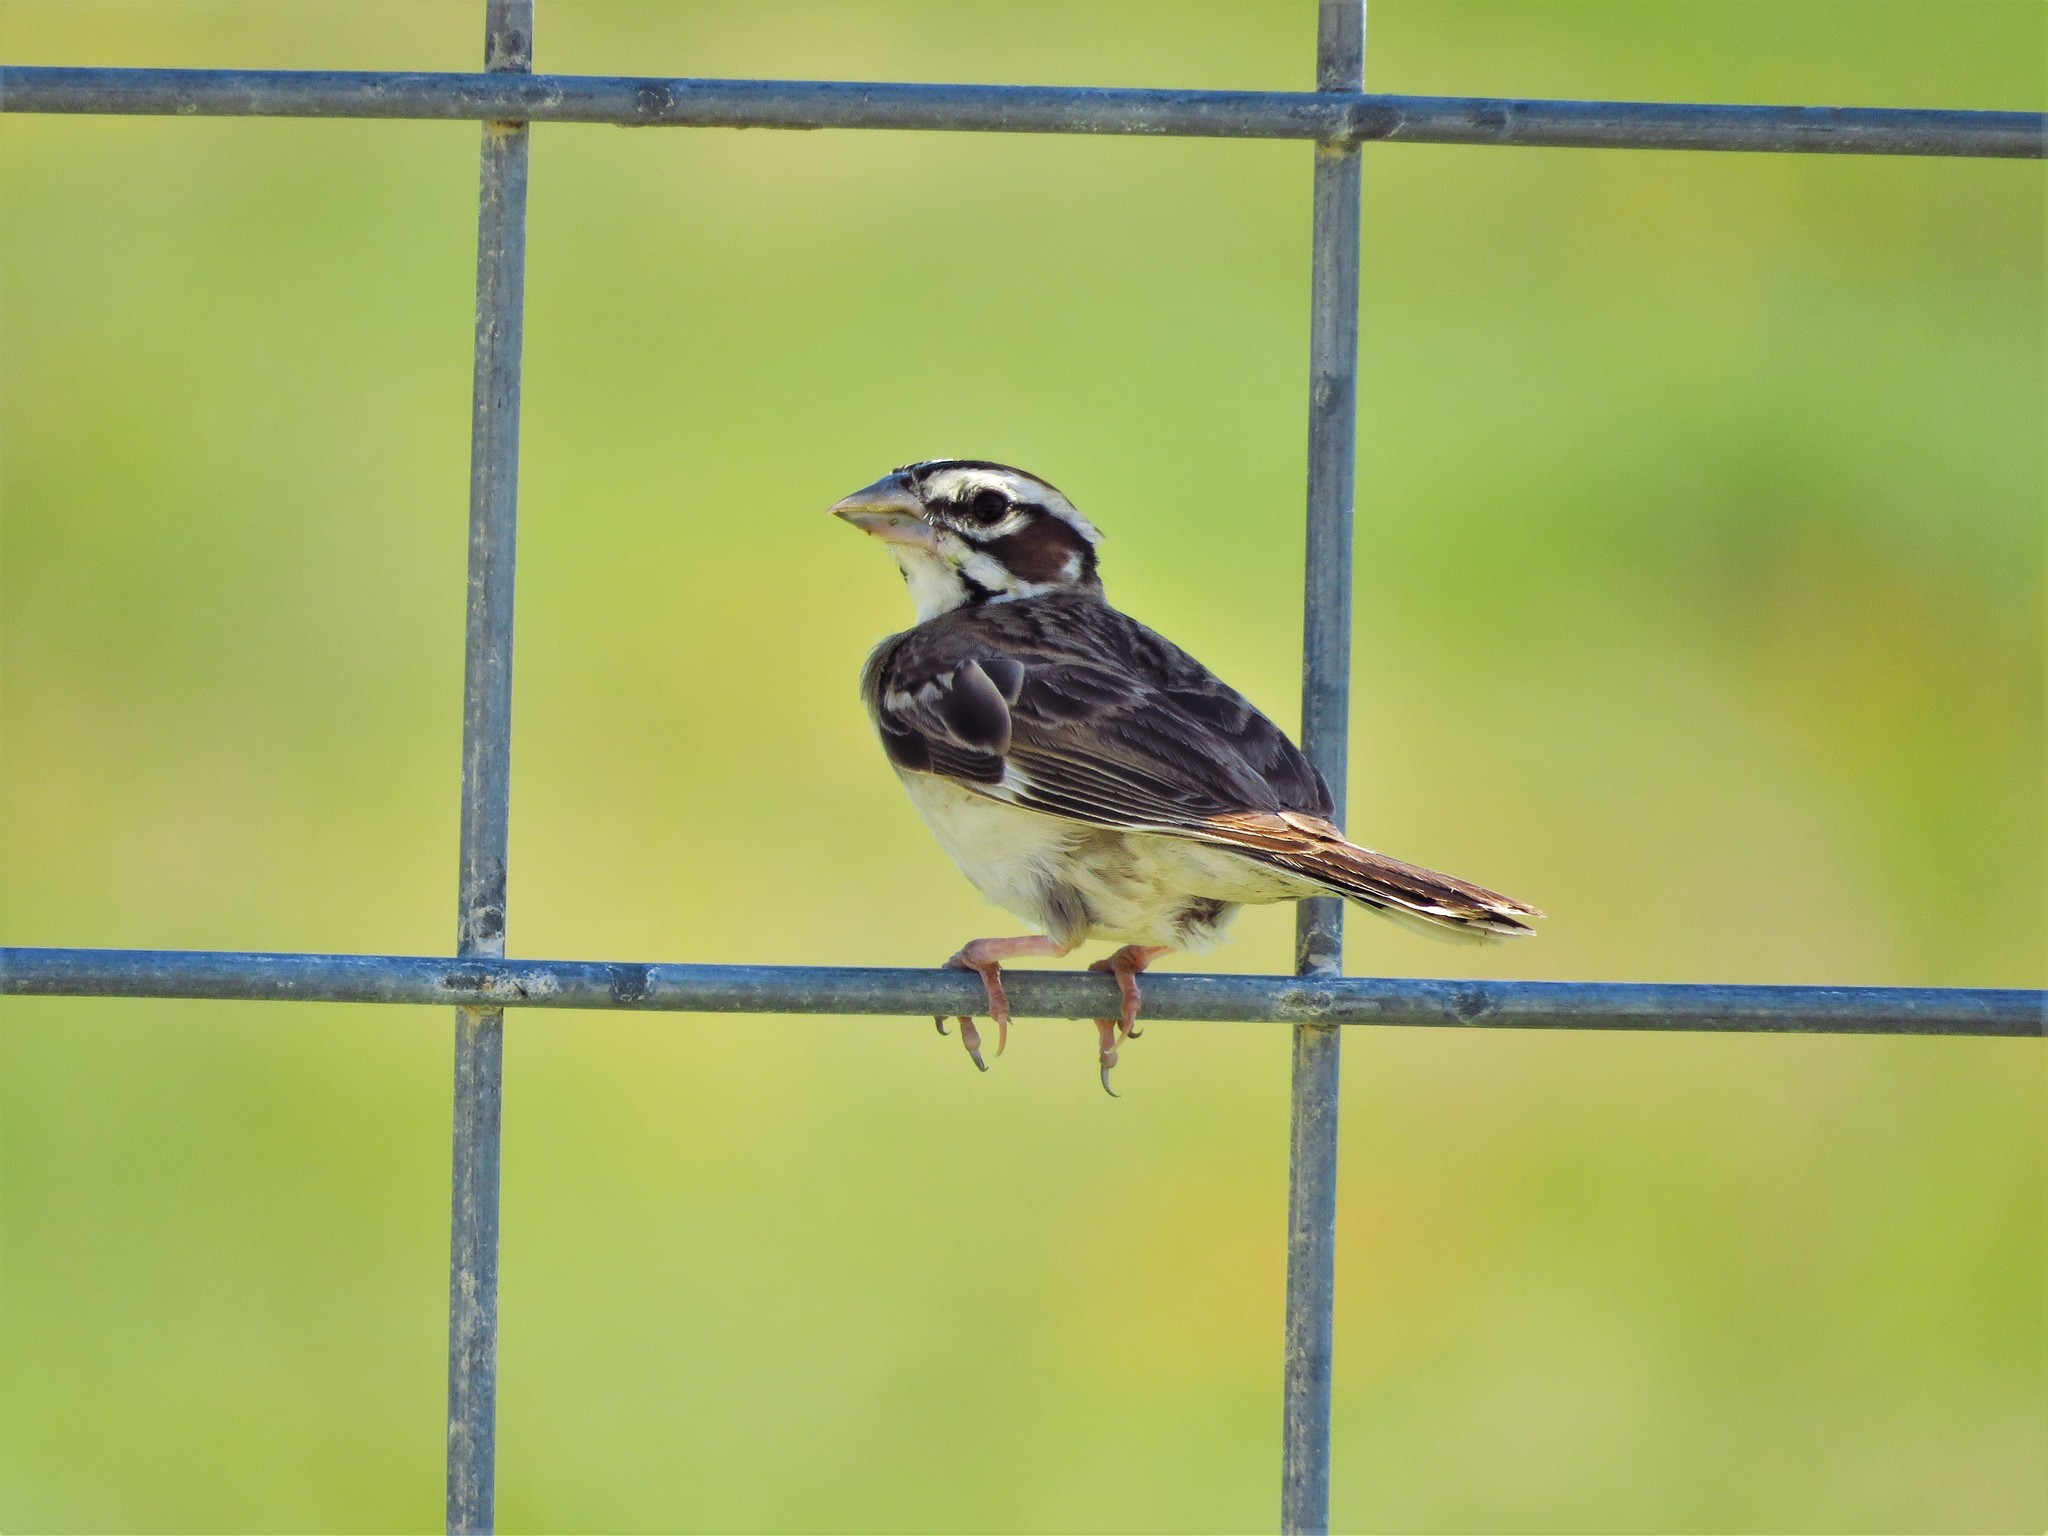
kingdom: Animalia
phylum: Chordata
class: Aves
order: Passeriformes
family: Passerellidae
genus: Chondestes
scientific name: Chondestes grammacus
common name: Lark sparrow
